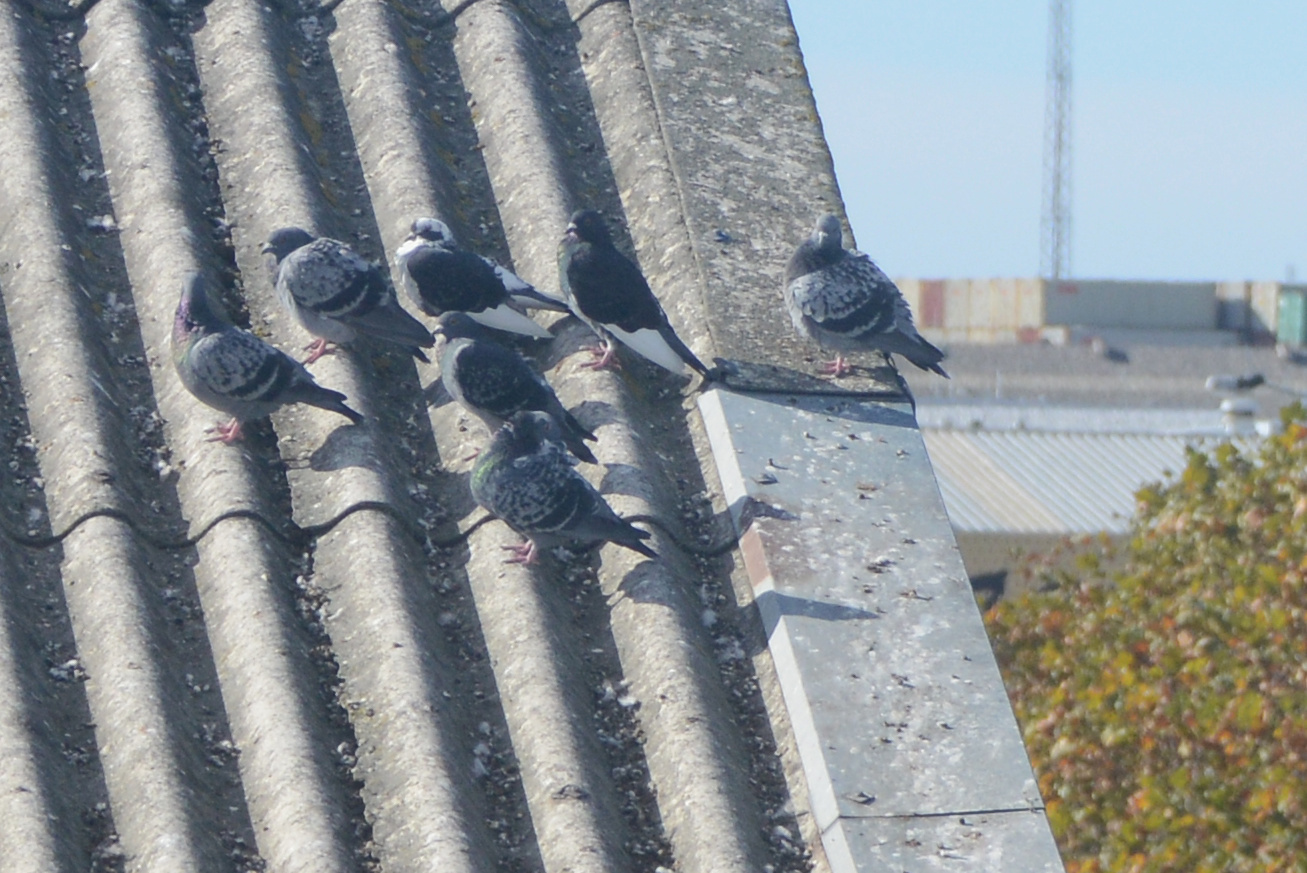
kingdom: Animalia
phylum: Chordata
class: Aves
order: Columbiformes
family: Columbidae
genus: Columba
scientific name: Columba livia
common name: Rock pigeon
